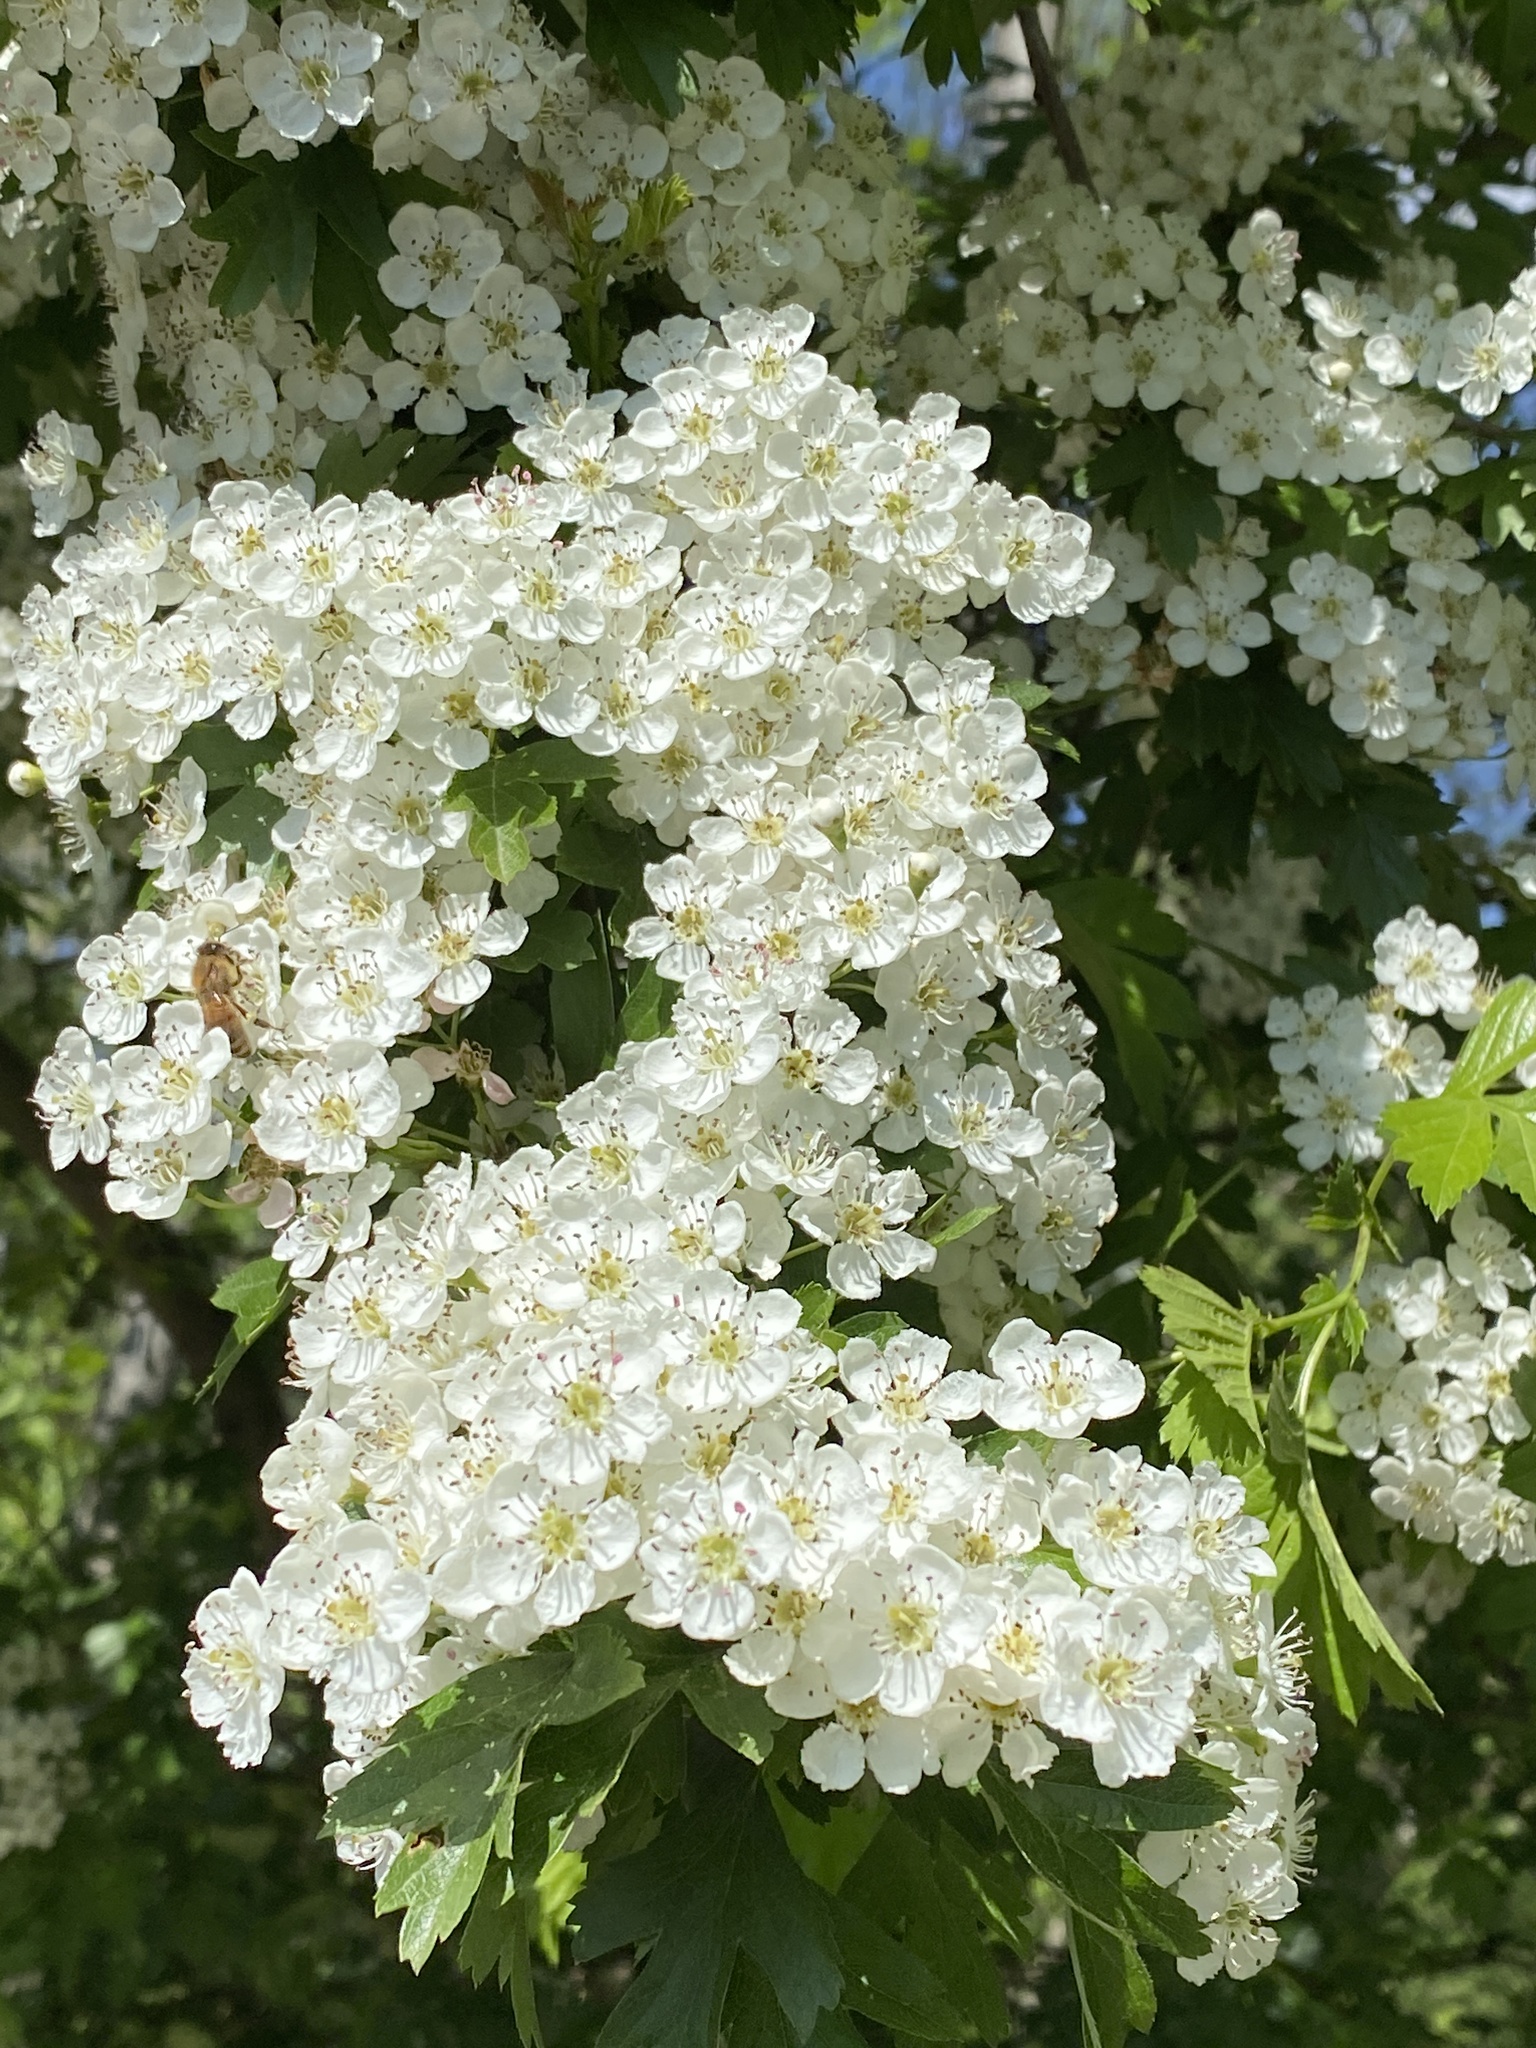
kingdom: Plantae
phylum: Tracheophyta
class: Magnoliopsida
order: Rosales
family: Rosaceae
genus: Crataegus
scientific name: Crataegus monogyna
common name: Hawthorn
